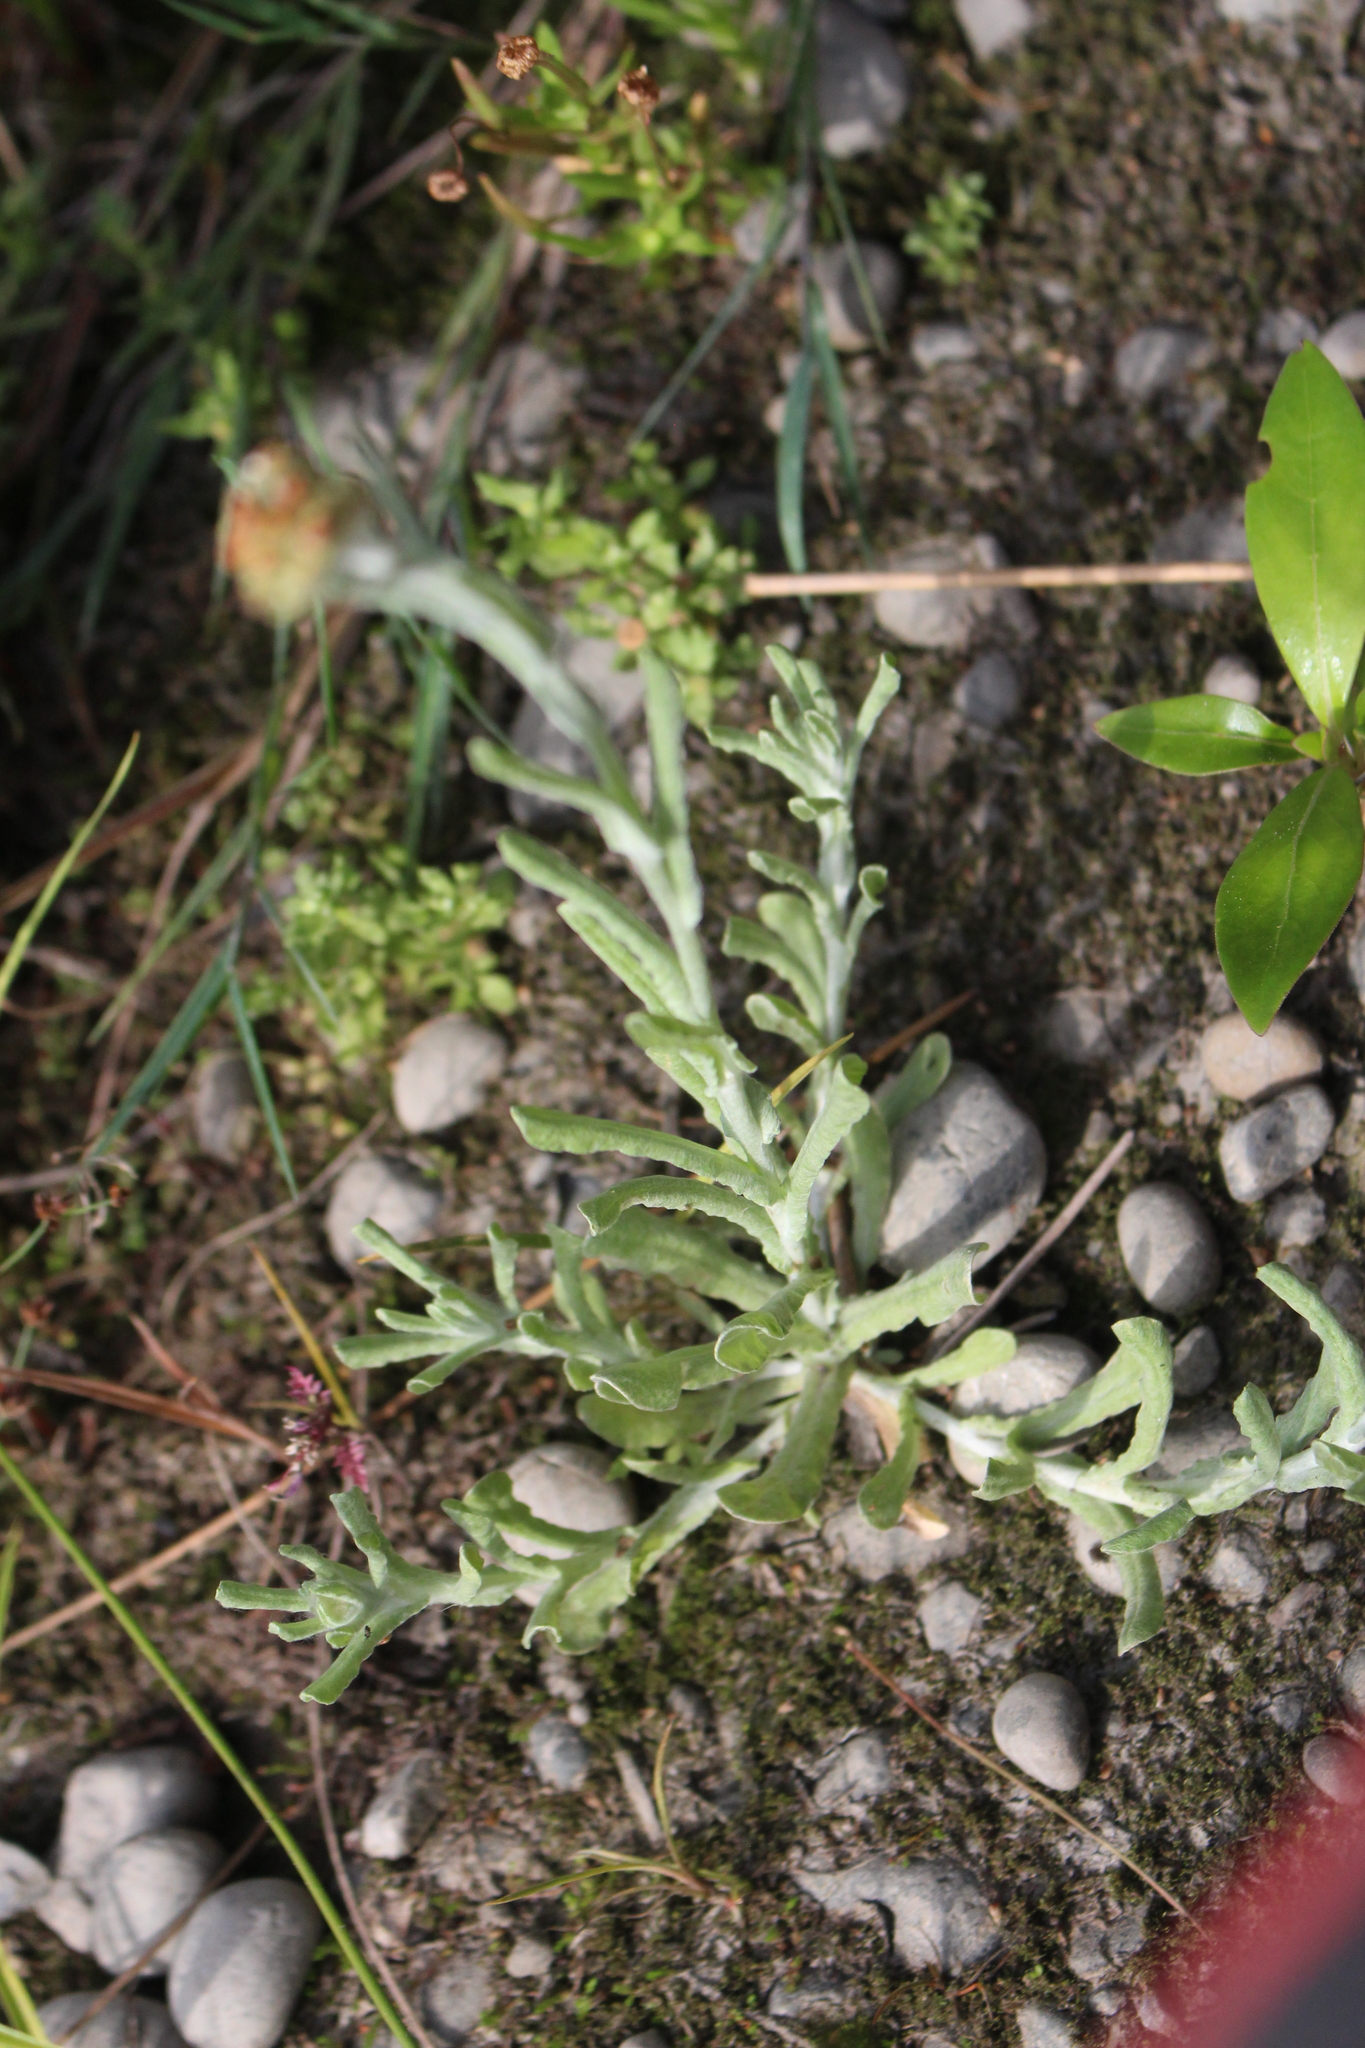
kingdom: Plantae
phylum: Tracheophyta
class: Magnoliopsida
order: Asterales
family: Asteraceae
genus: Helichrysum
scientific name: Helichrysum luteoalbum
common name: Daisy
